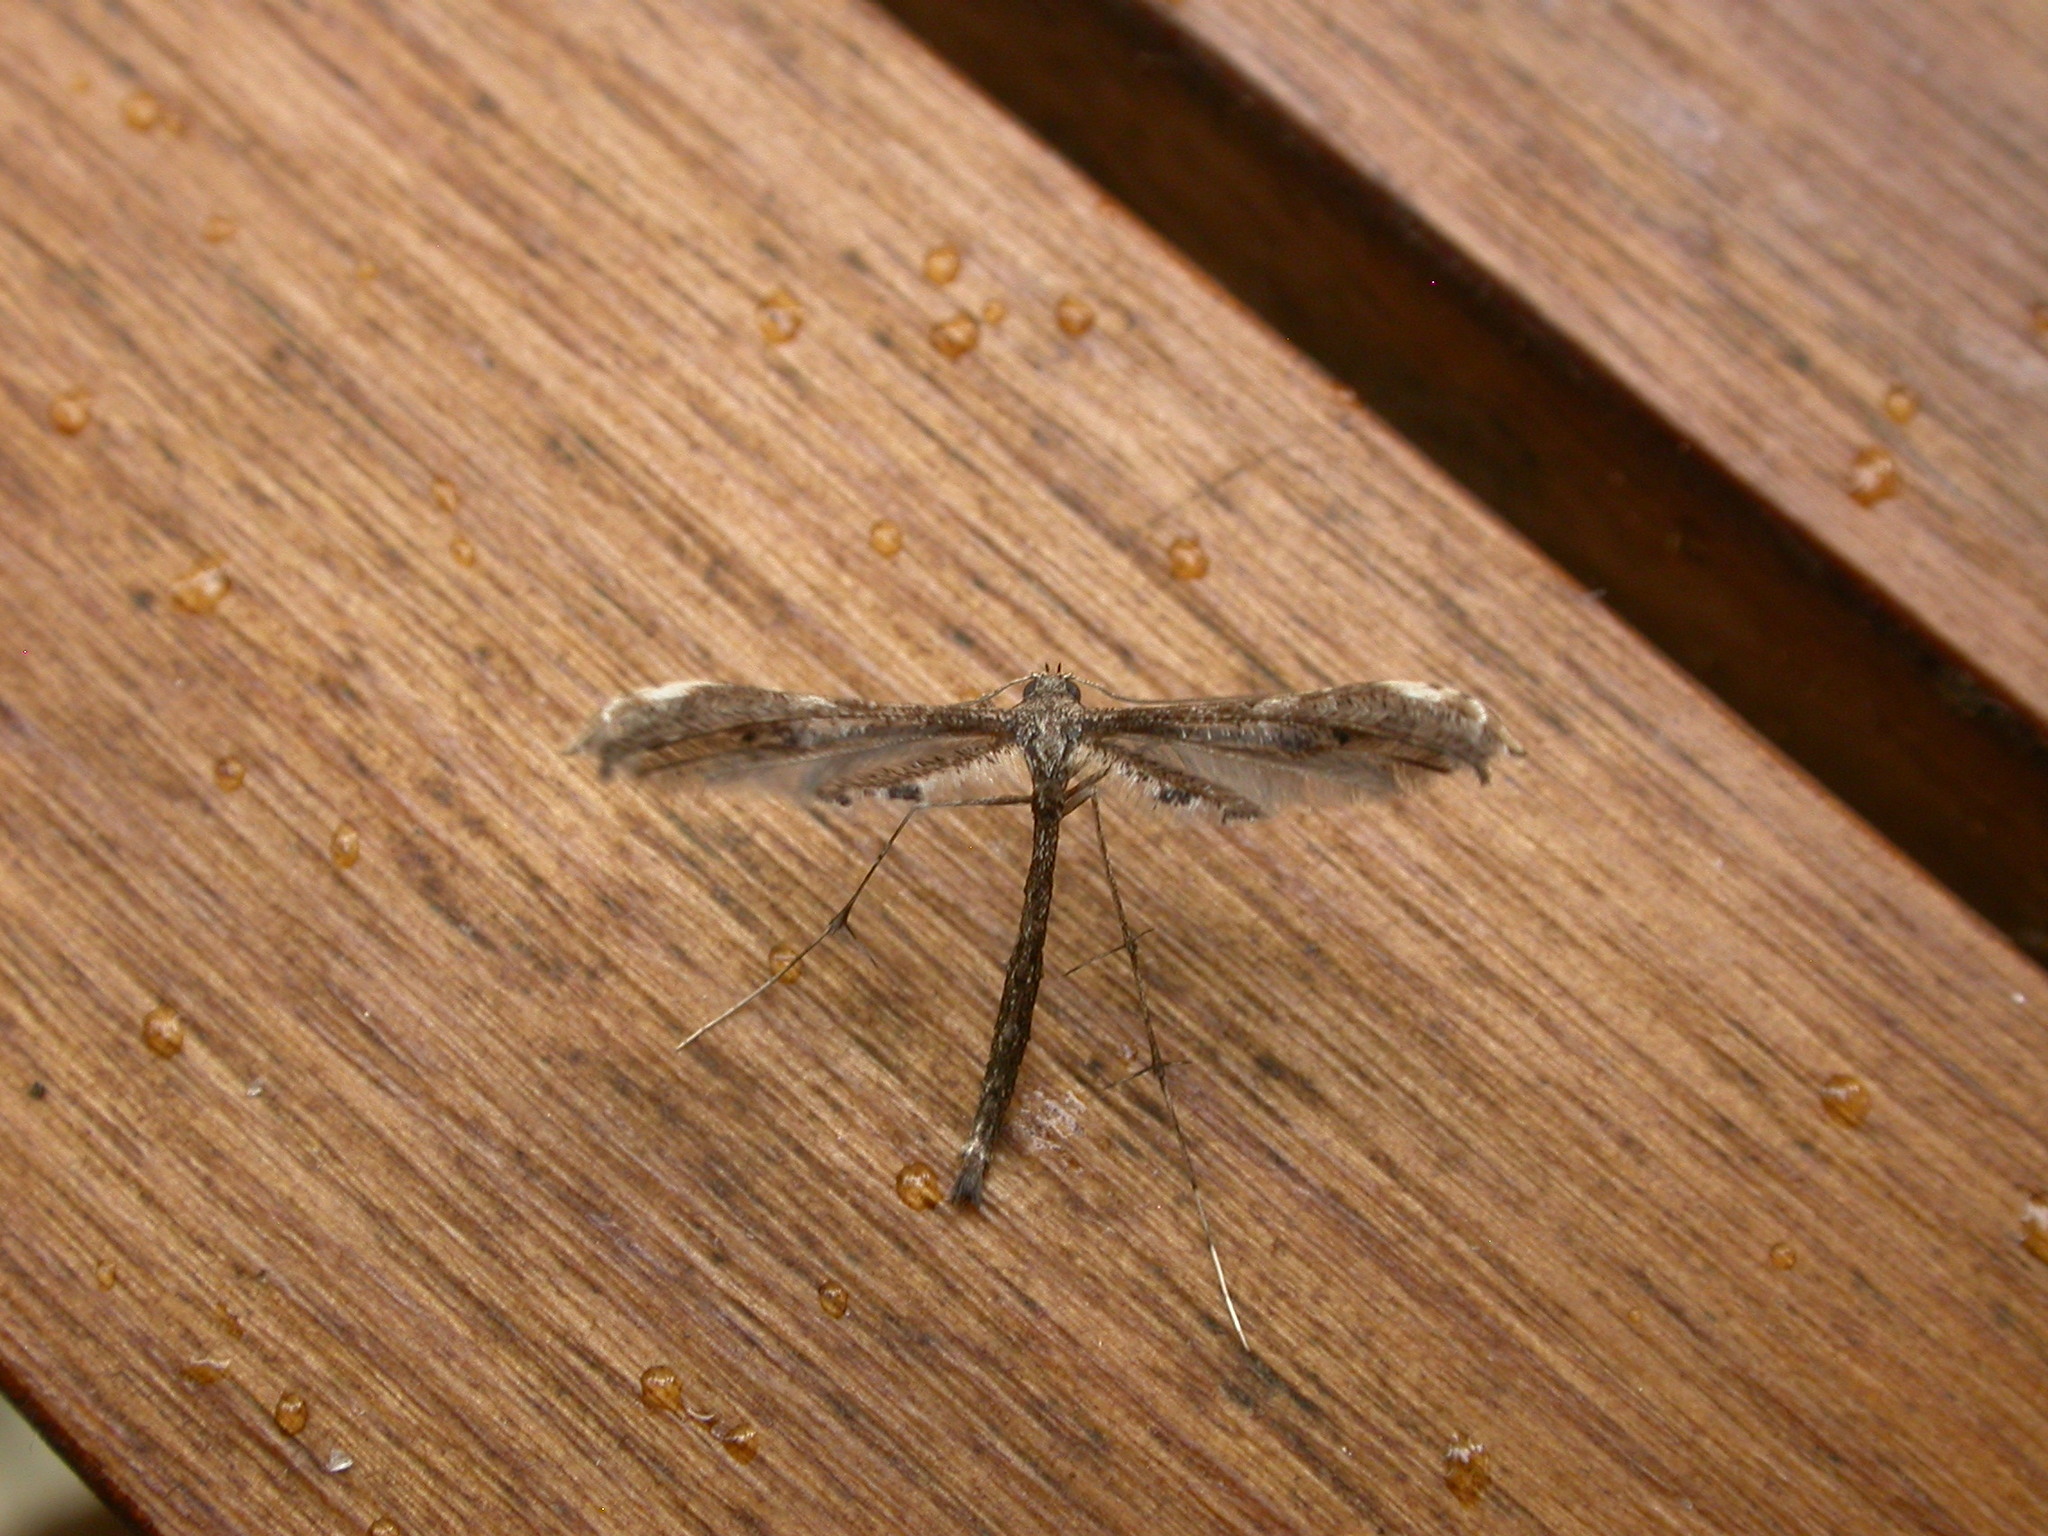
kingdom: Animalia
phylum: Arthropoda
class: Insecta
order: Lepidoptera
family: Pterophoridae
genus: Tetraschalis
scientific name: Tetraschalis arachnodes
